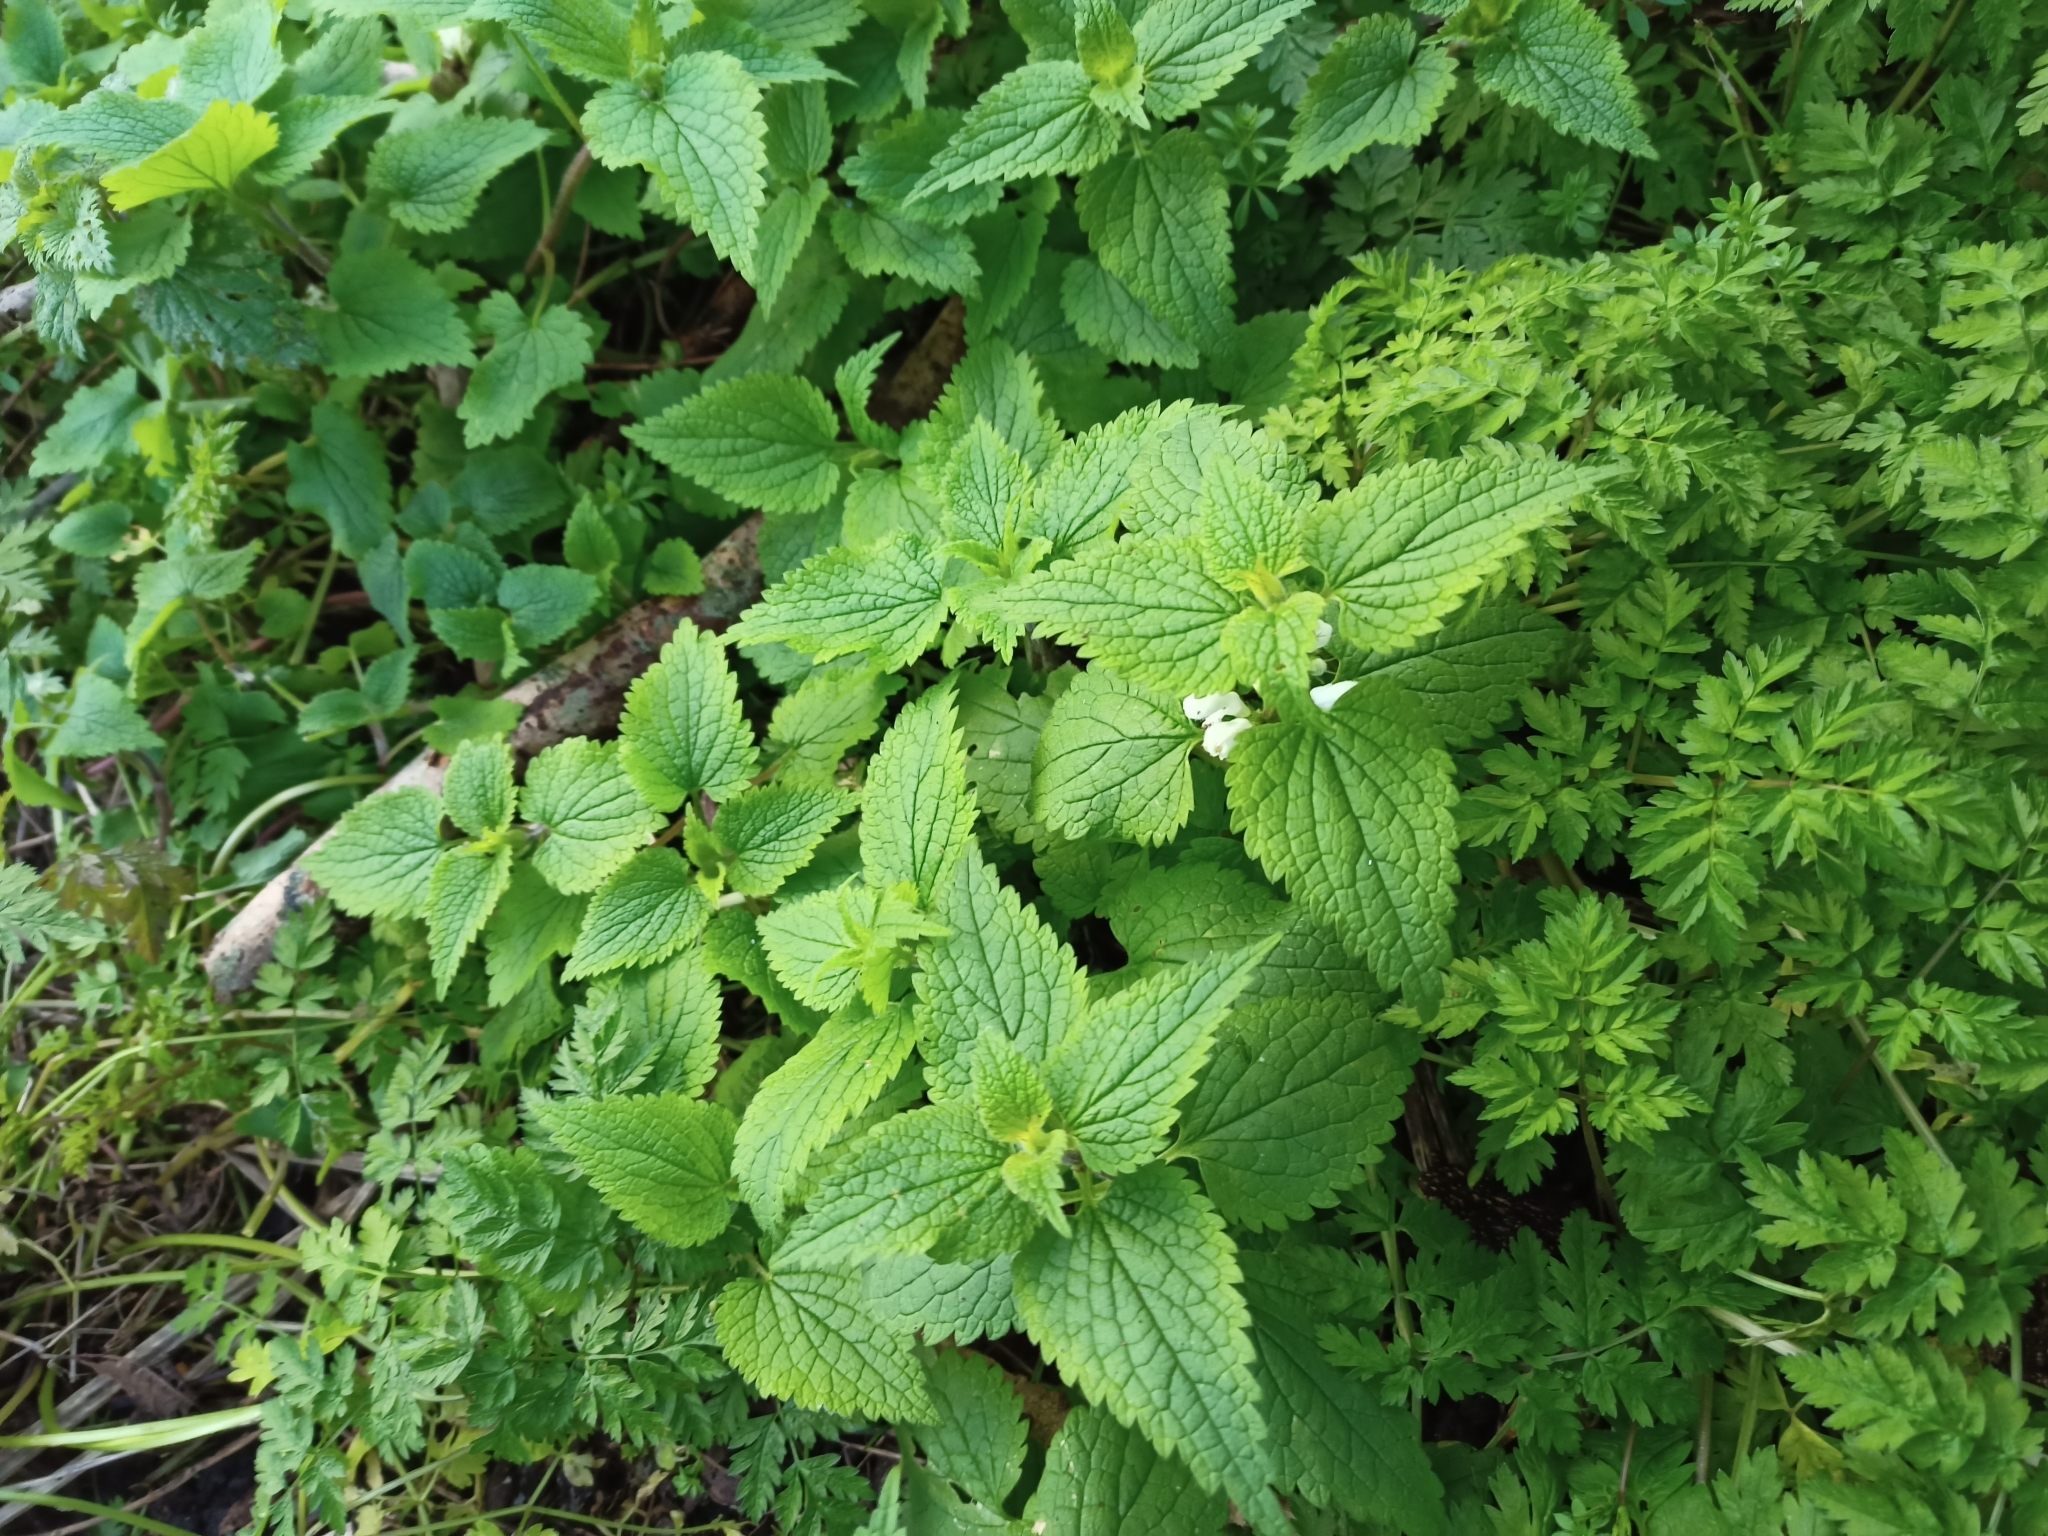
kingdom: Plantae
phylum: Tracheophyta
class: Magnoliopsida
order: Lamiales
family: Lamiaceae
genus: Lamium
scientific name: Lamium album
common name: White dead-nettle
